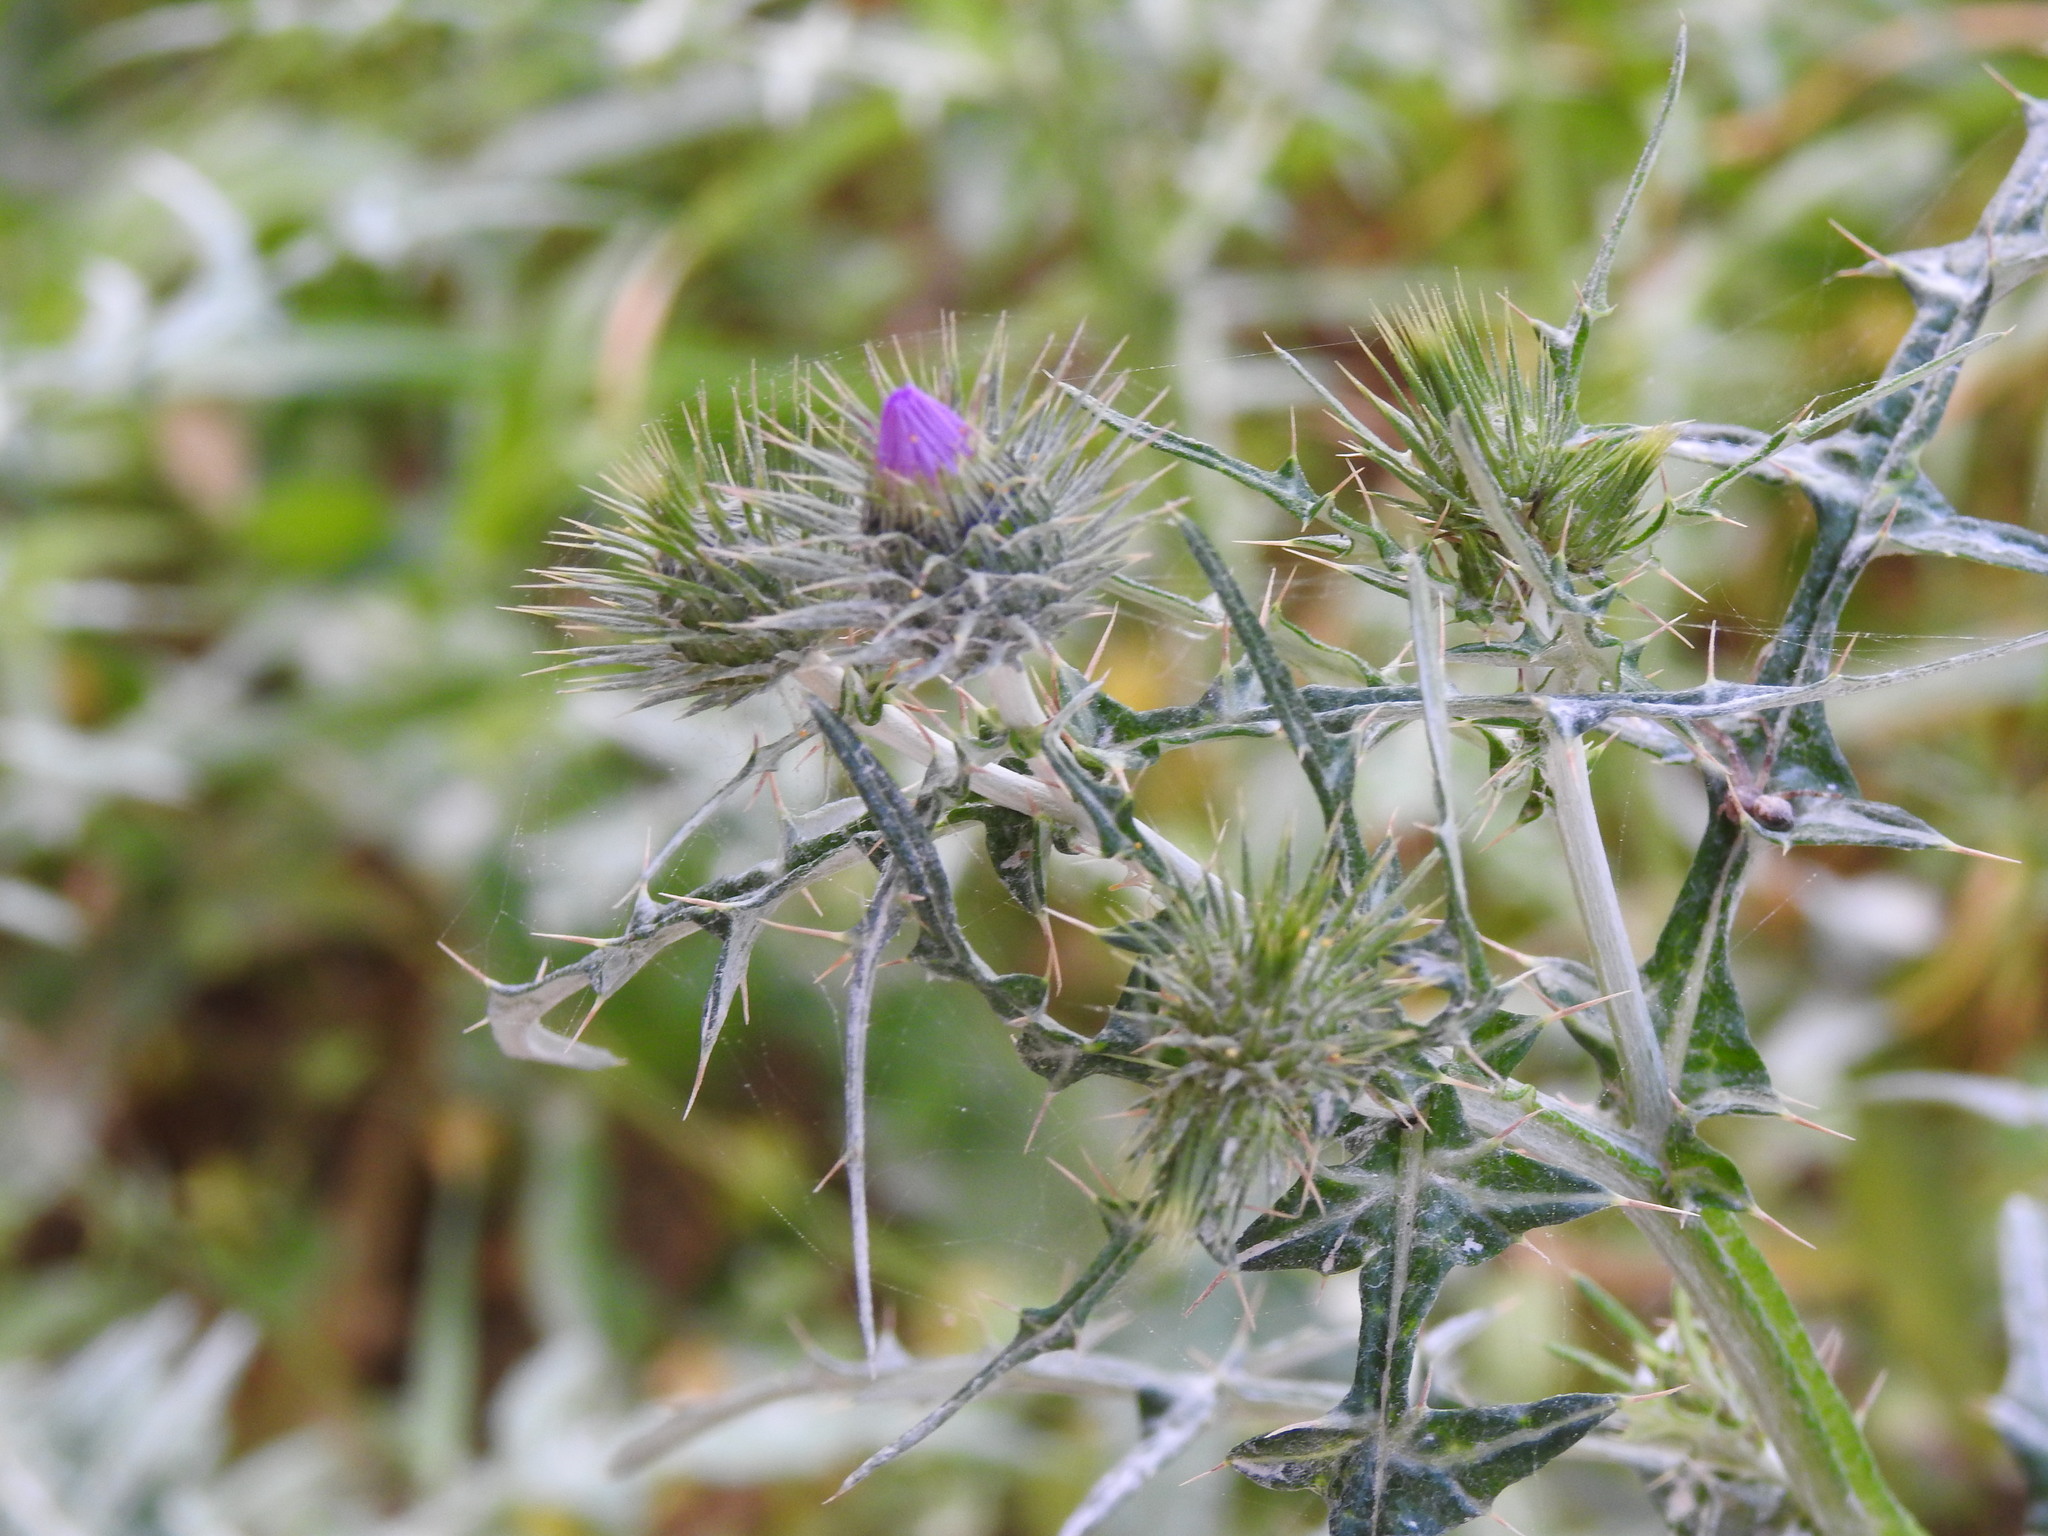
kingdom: Plantae
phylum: Tracheophyta
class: Magnoliopsida
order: Asterales
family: Asteraceae
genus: Galactites
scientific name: Galactites tomentosa
